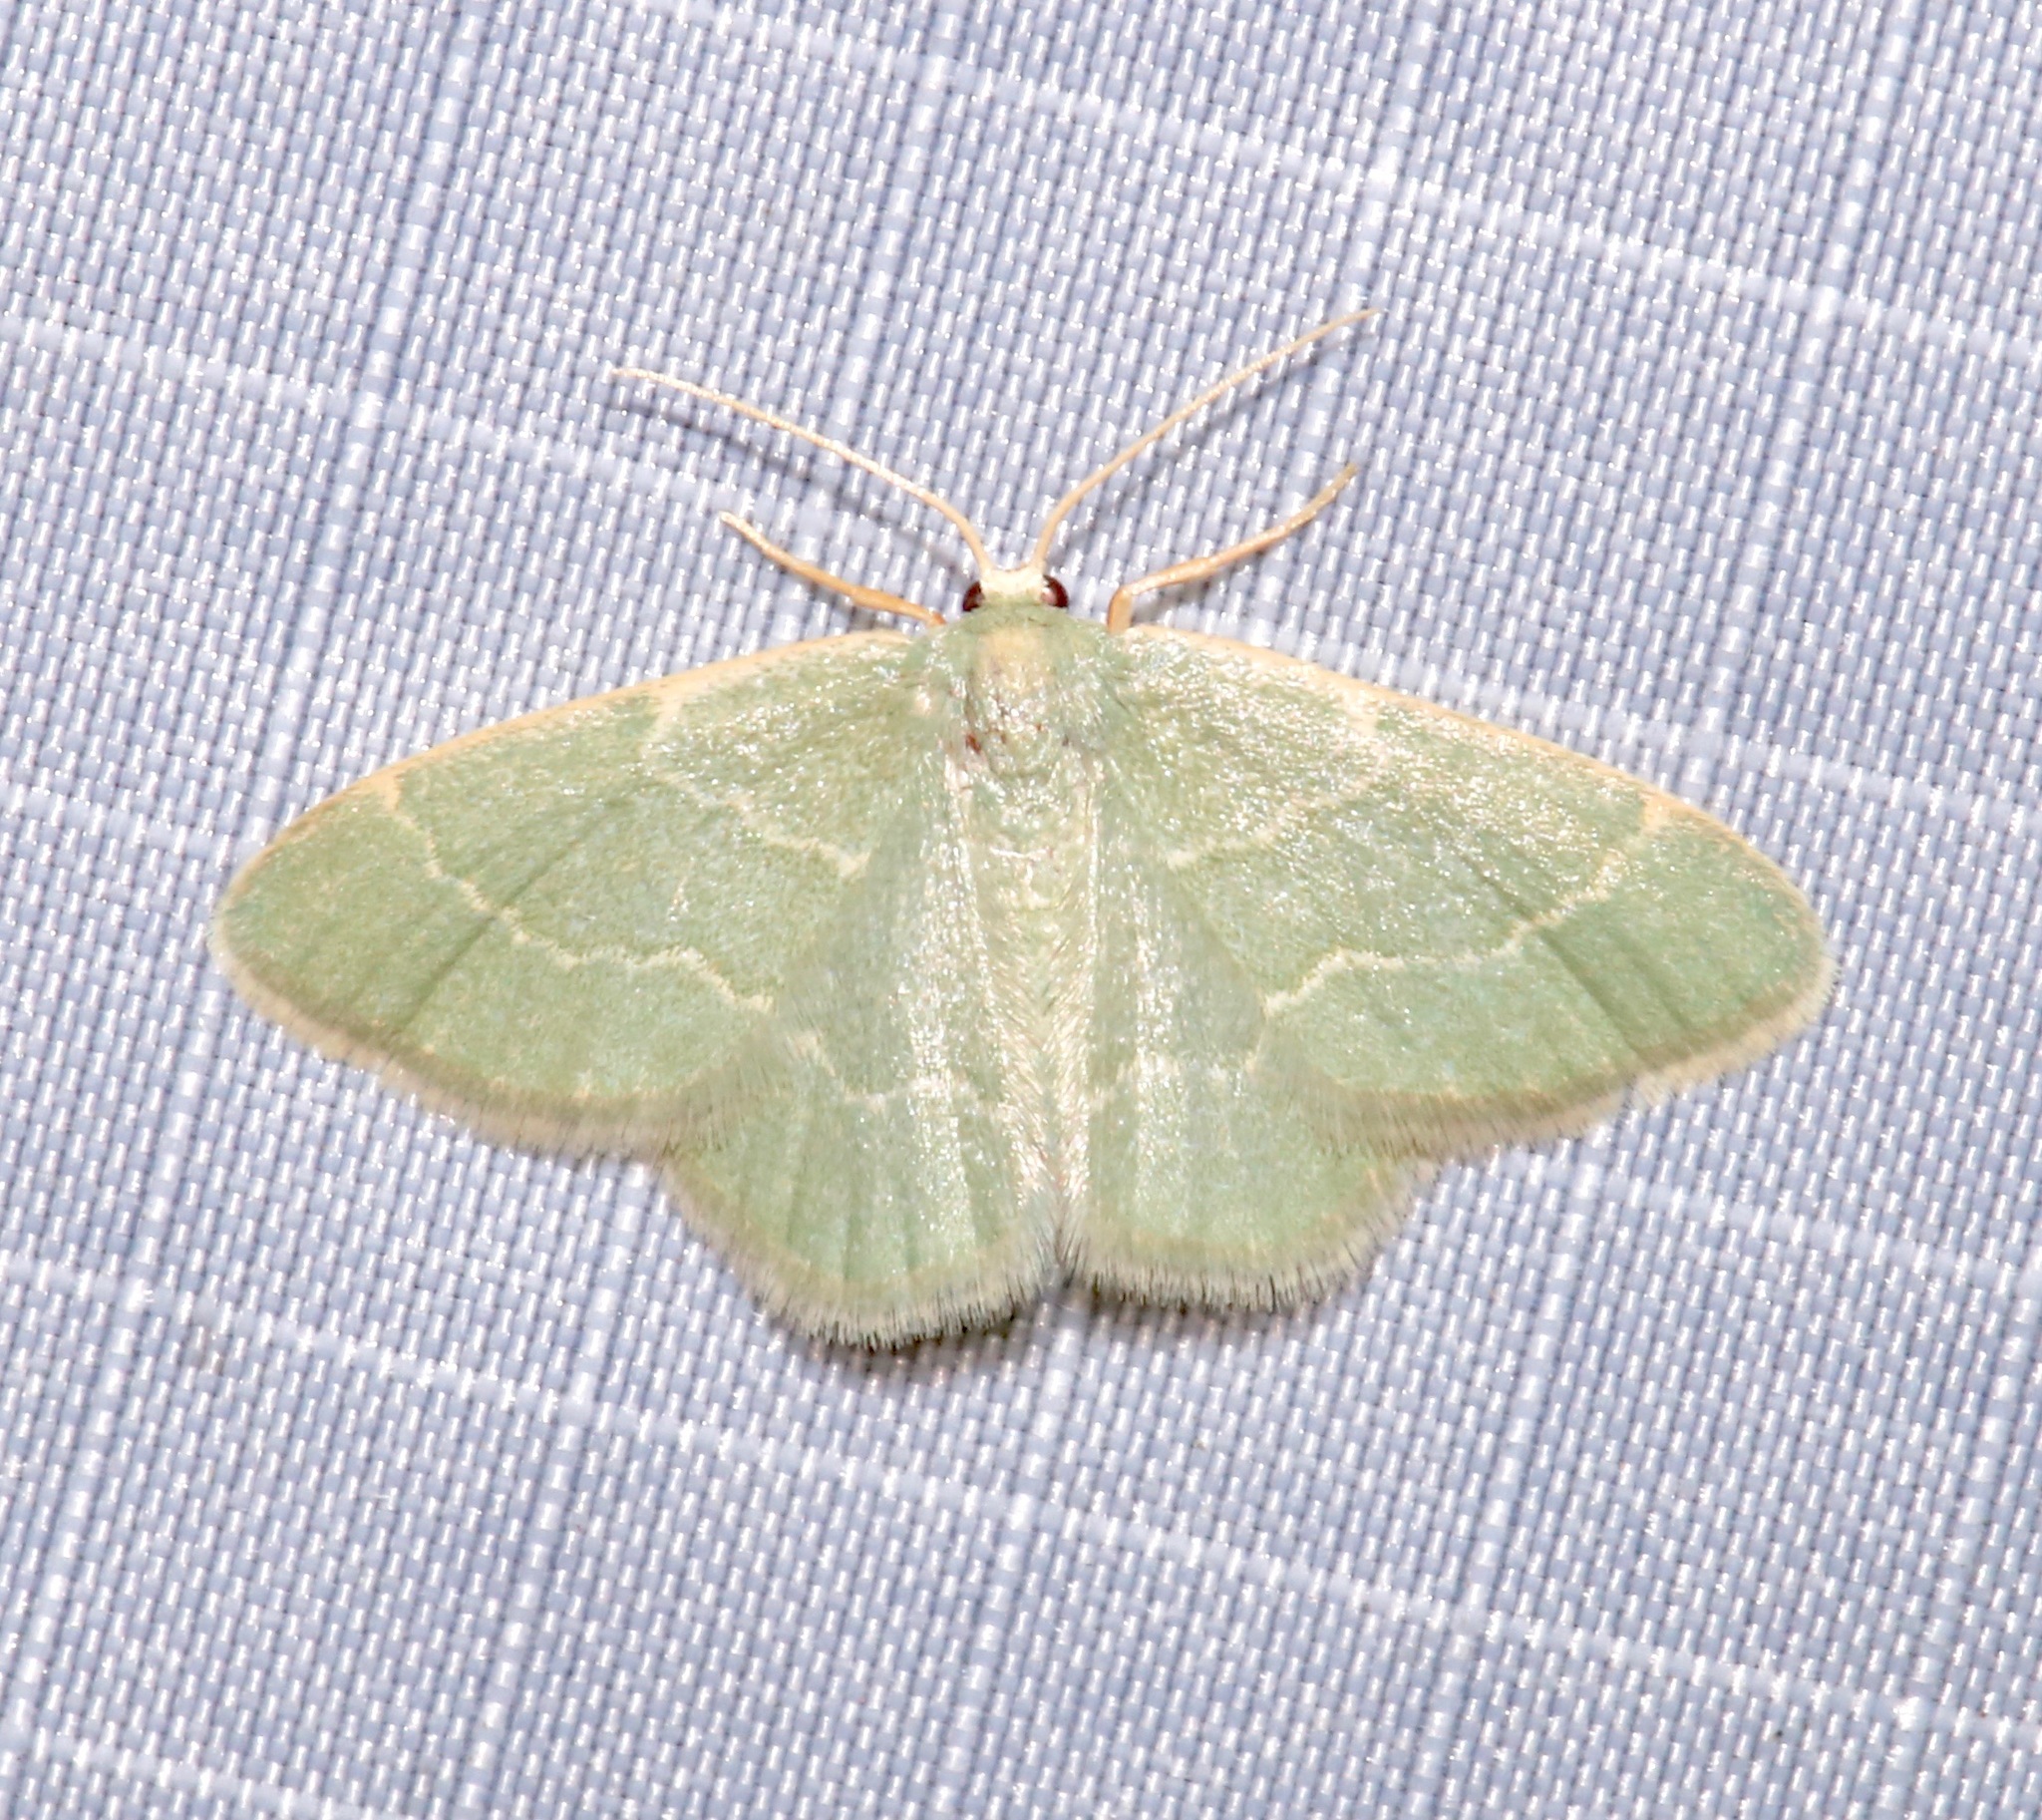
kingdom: Animalia
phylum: Arthropoda
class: Insecta
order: Lepidoptera
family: Geometridae
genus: Chlorochlamys
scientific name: Chlorochlamys phyllinaria
